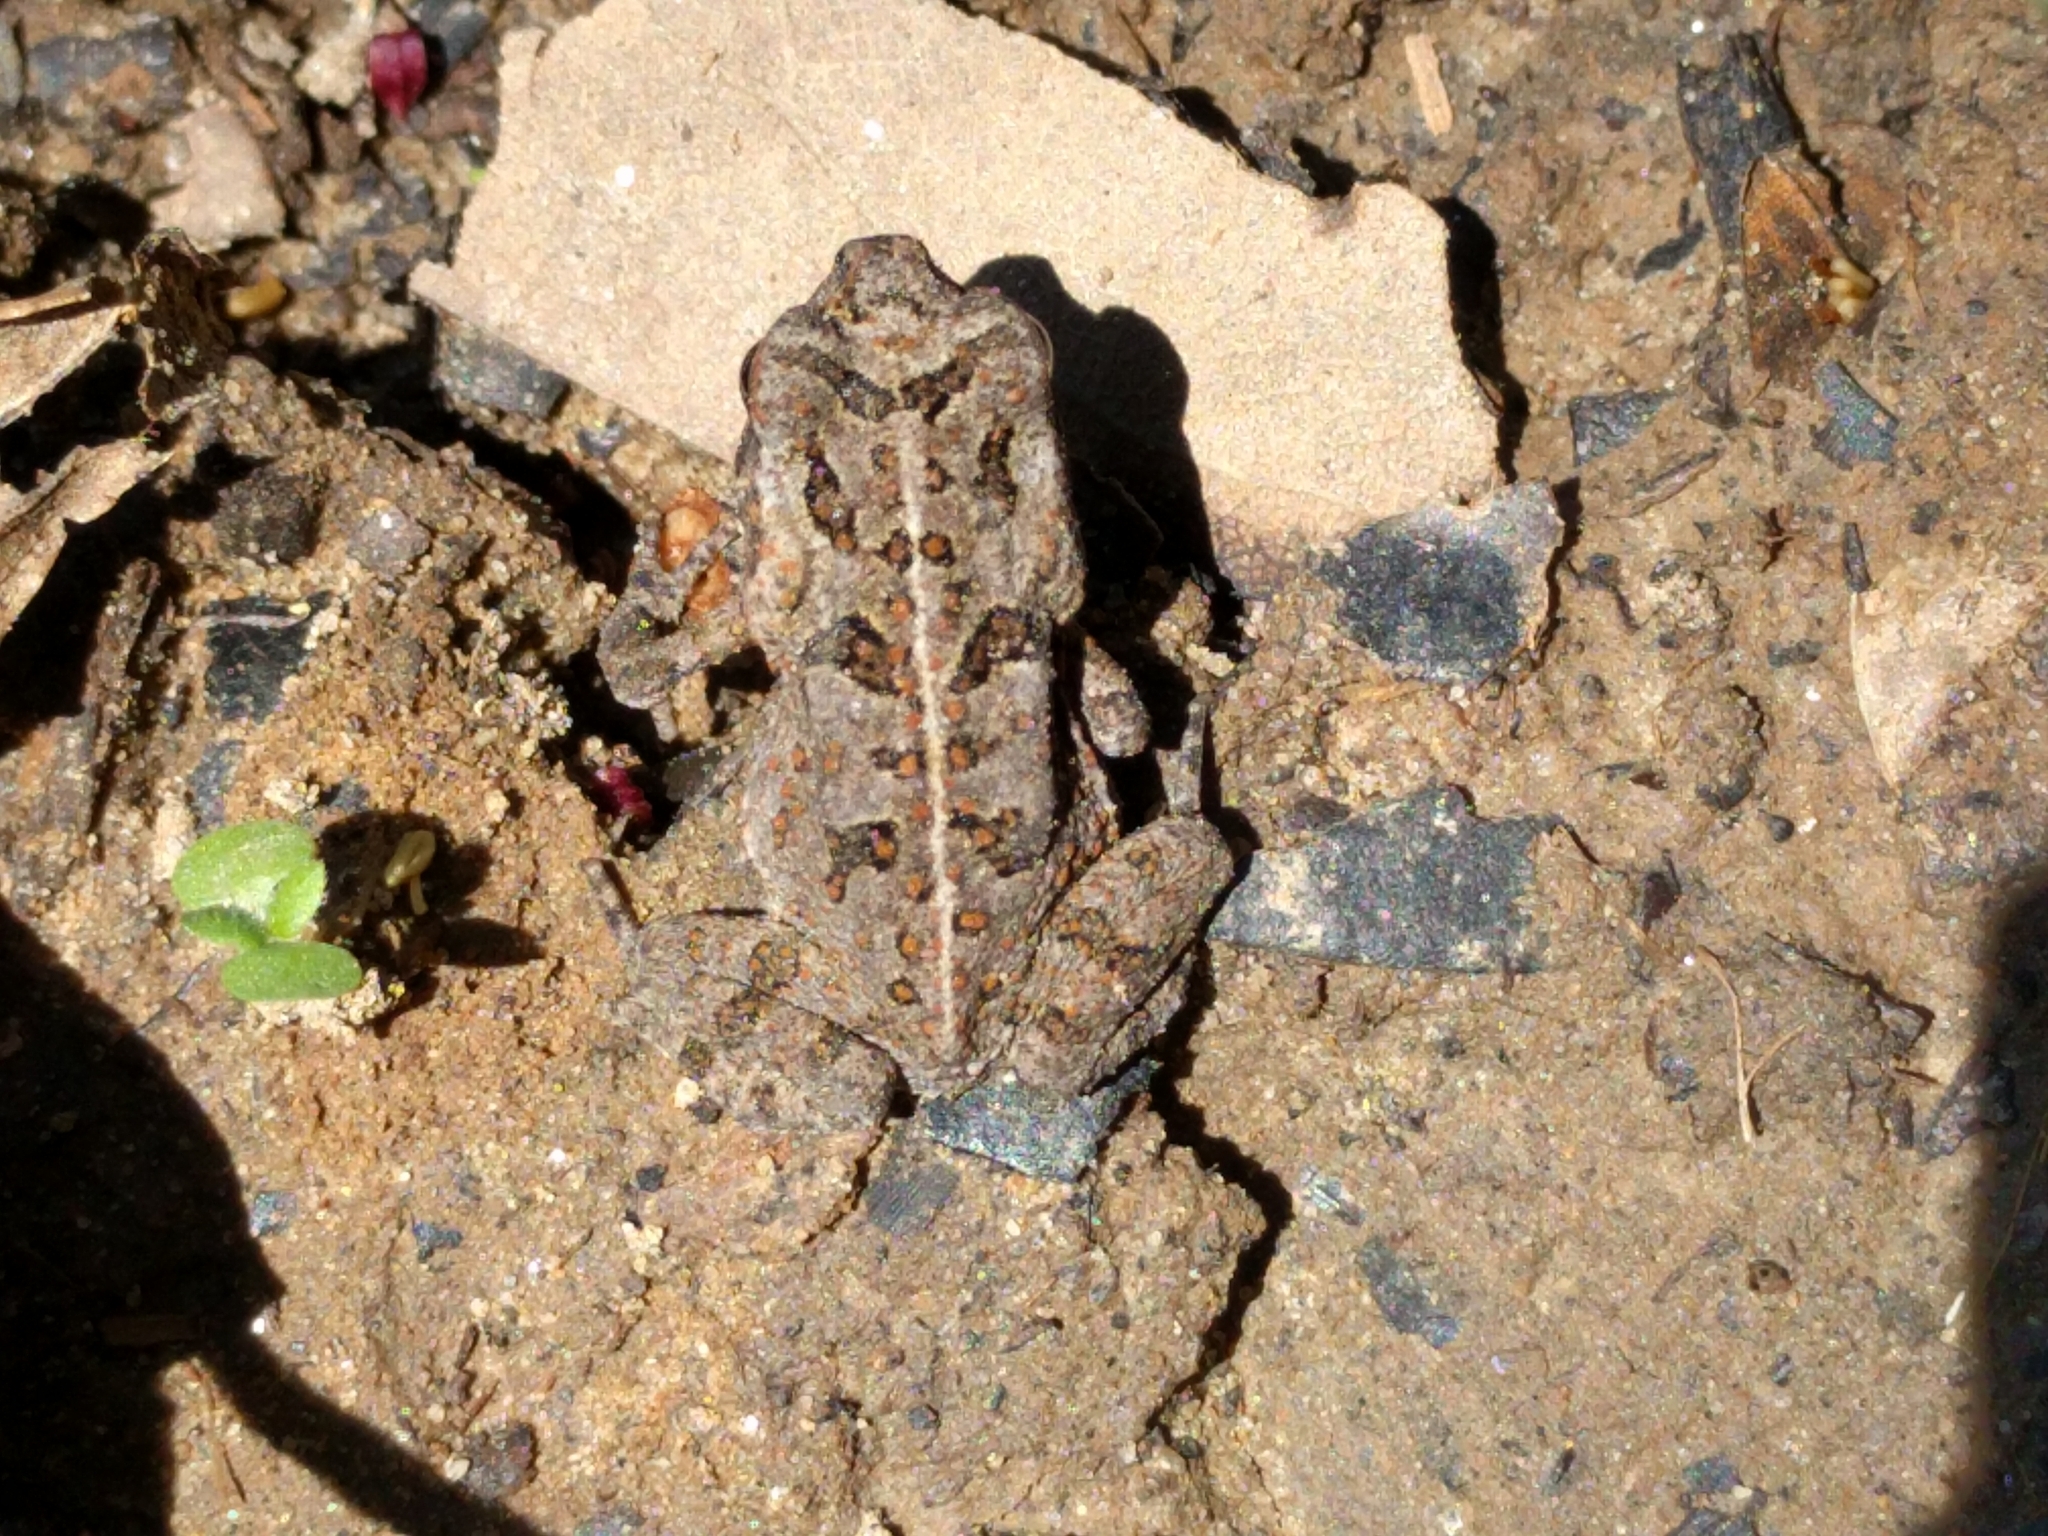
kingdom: Animalia
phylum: Chordata
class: Amphibia
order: Anura
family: Bufonidae
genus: Rhinella
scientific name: Rhinella marina
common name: Cane toad
